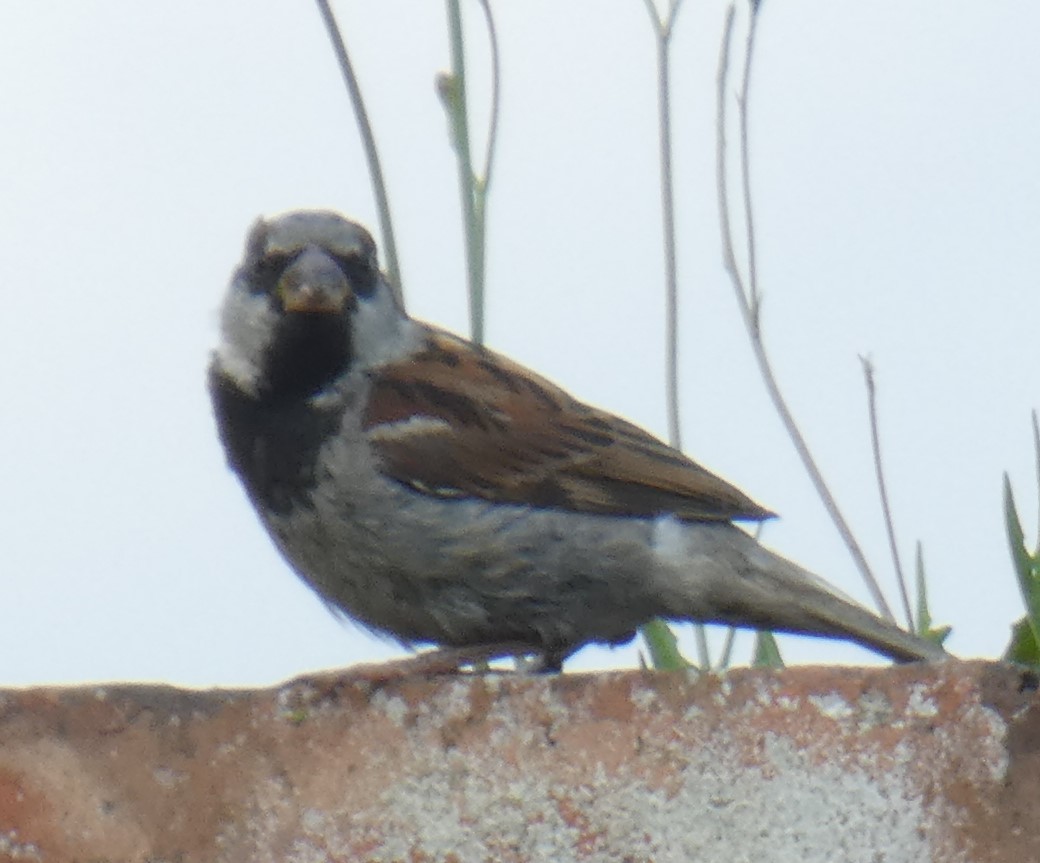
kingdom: Animalia
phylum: Chordata
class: Aves
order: Passeriformes
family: Passeridae
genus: Passer
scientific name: Passer domesticus
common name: House sparrow
